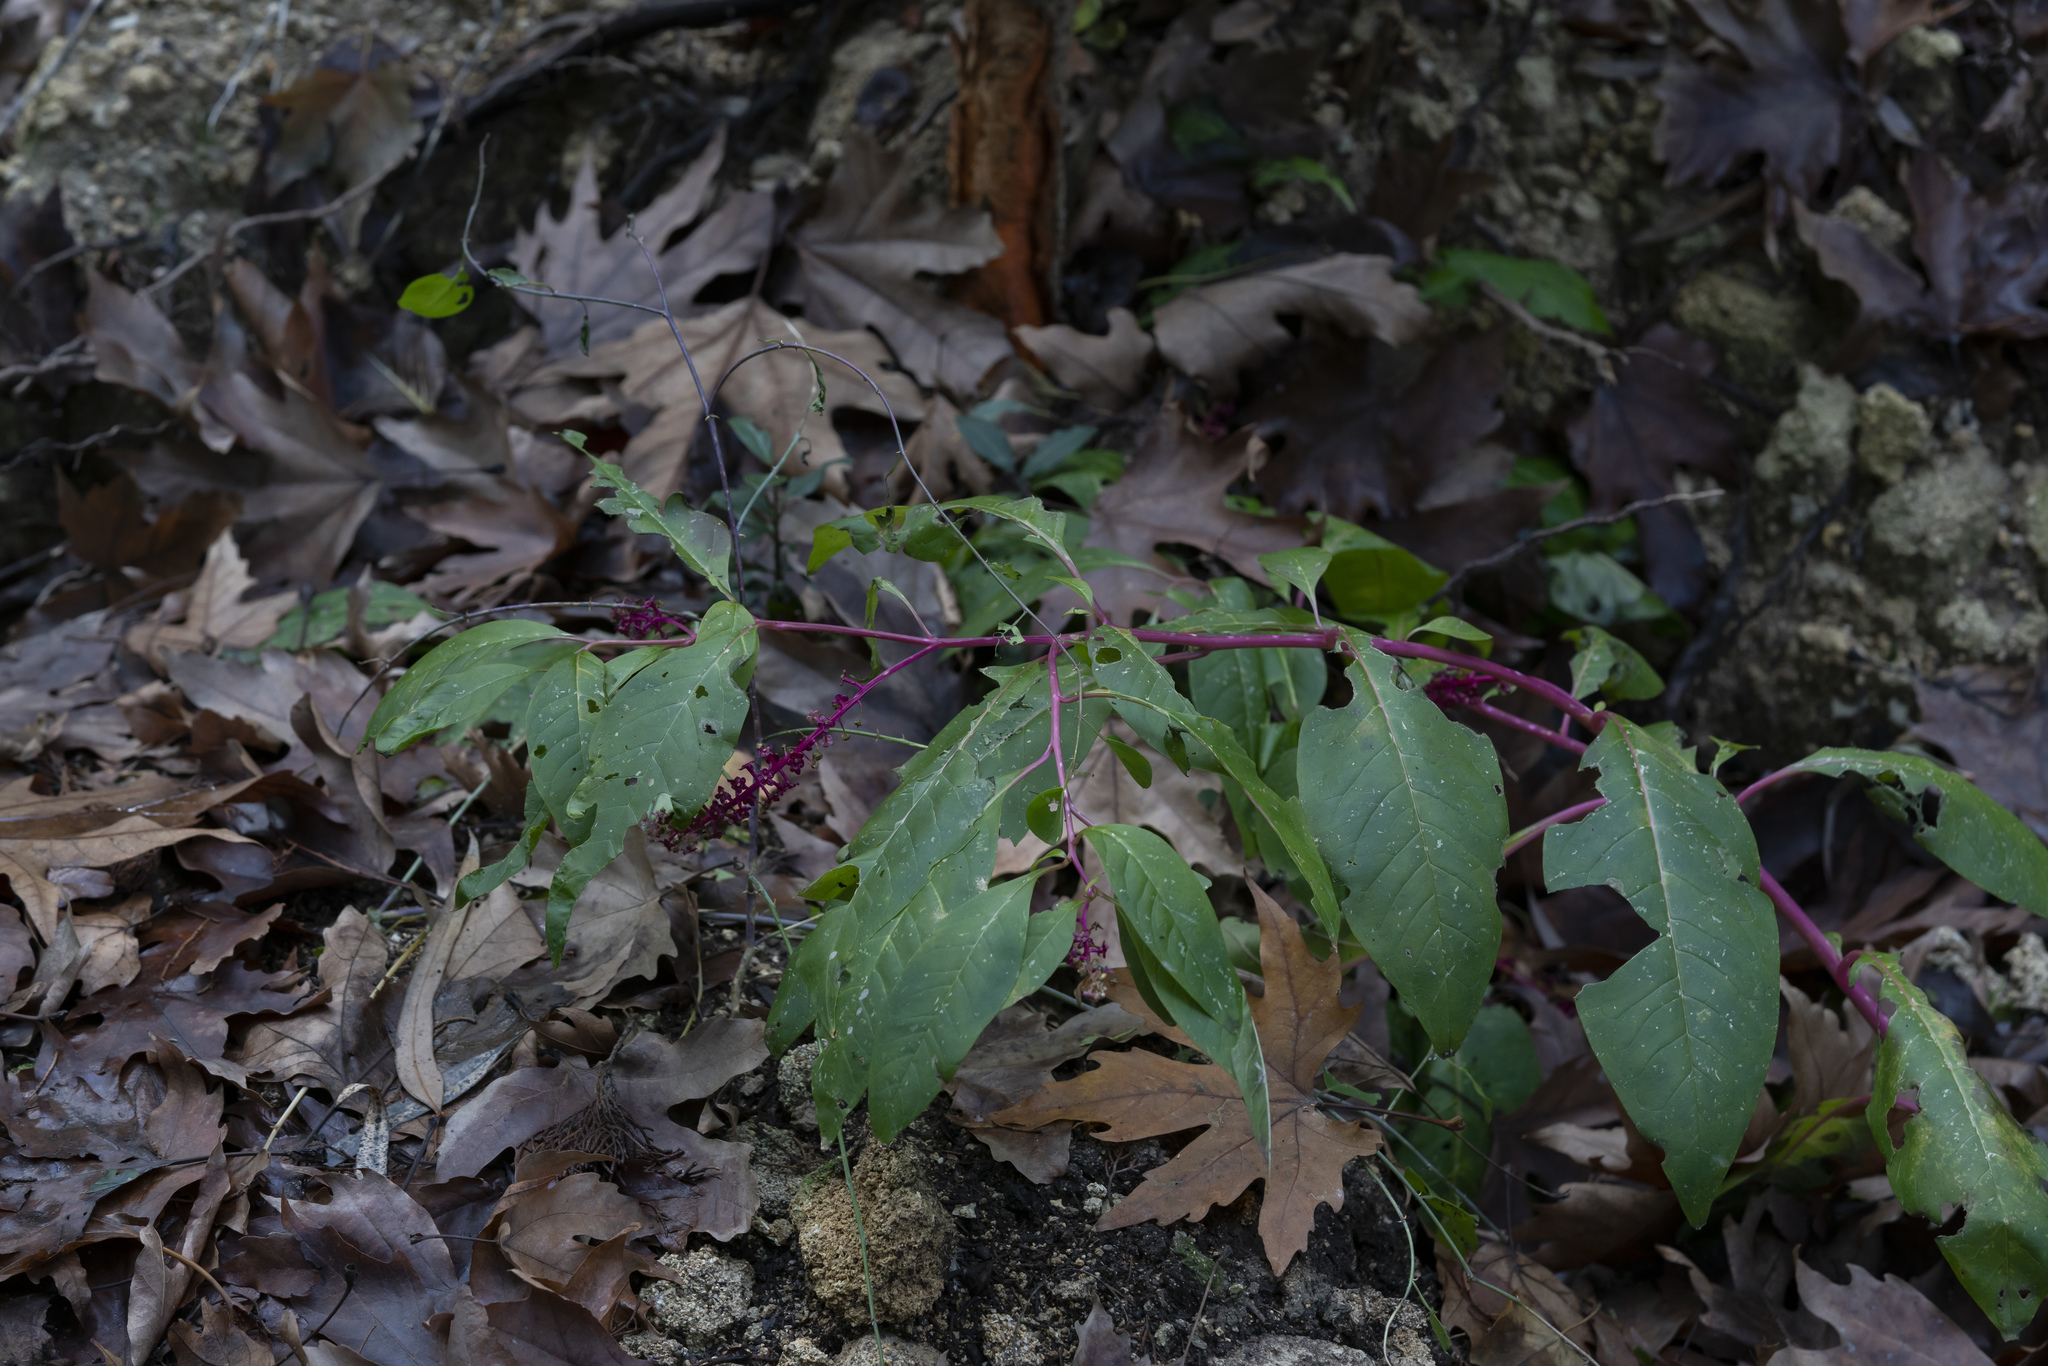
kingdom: Plantae
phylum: Tracheophyta
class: Magnoliopsida
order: Caryophyllales
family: Phytolaccaceae
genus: Phytolacca
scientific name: Phytolacca americana
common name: American pokeweed
